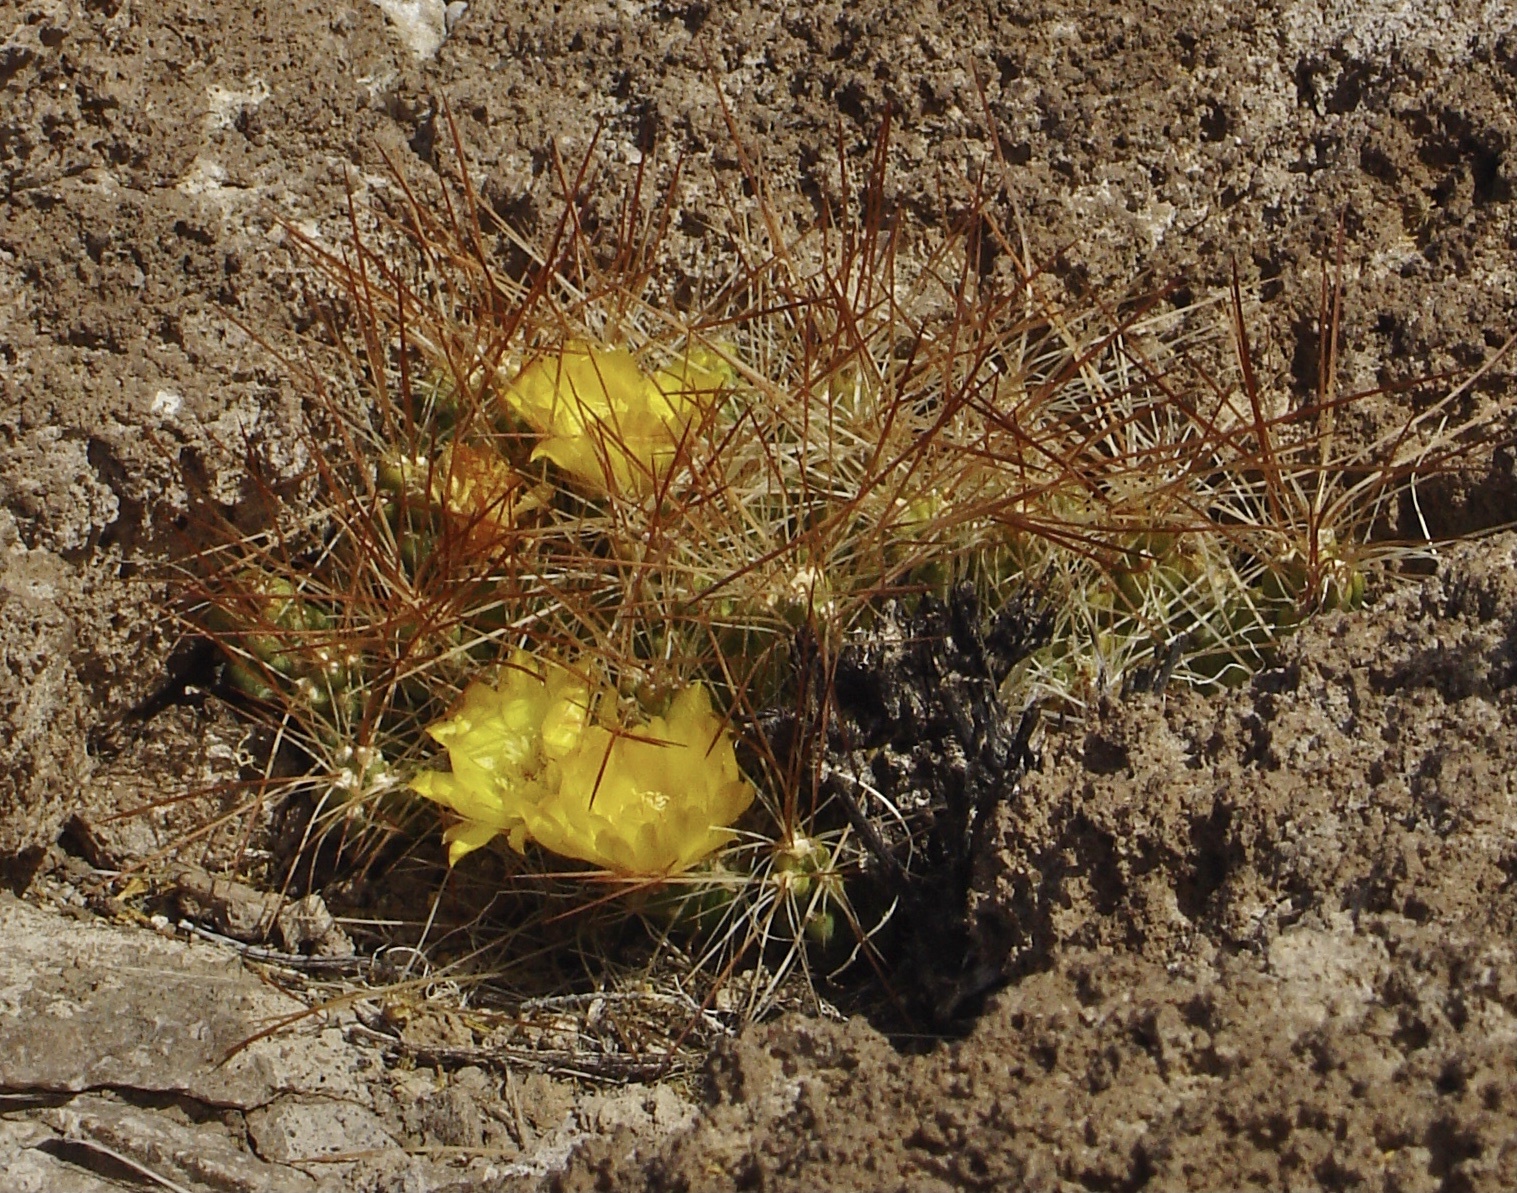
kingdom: Plantae
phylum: Tracheophyta
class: Magnoliopsida
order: Caryophyllales
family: Cactaceae
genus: Cumulopuntia
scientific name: Cumulopuntia boliviana
